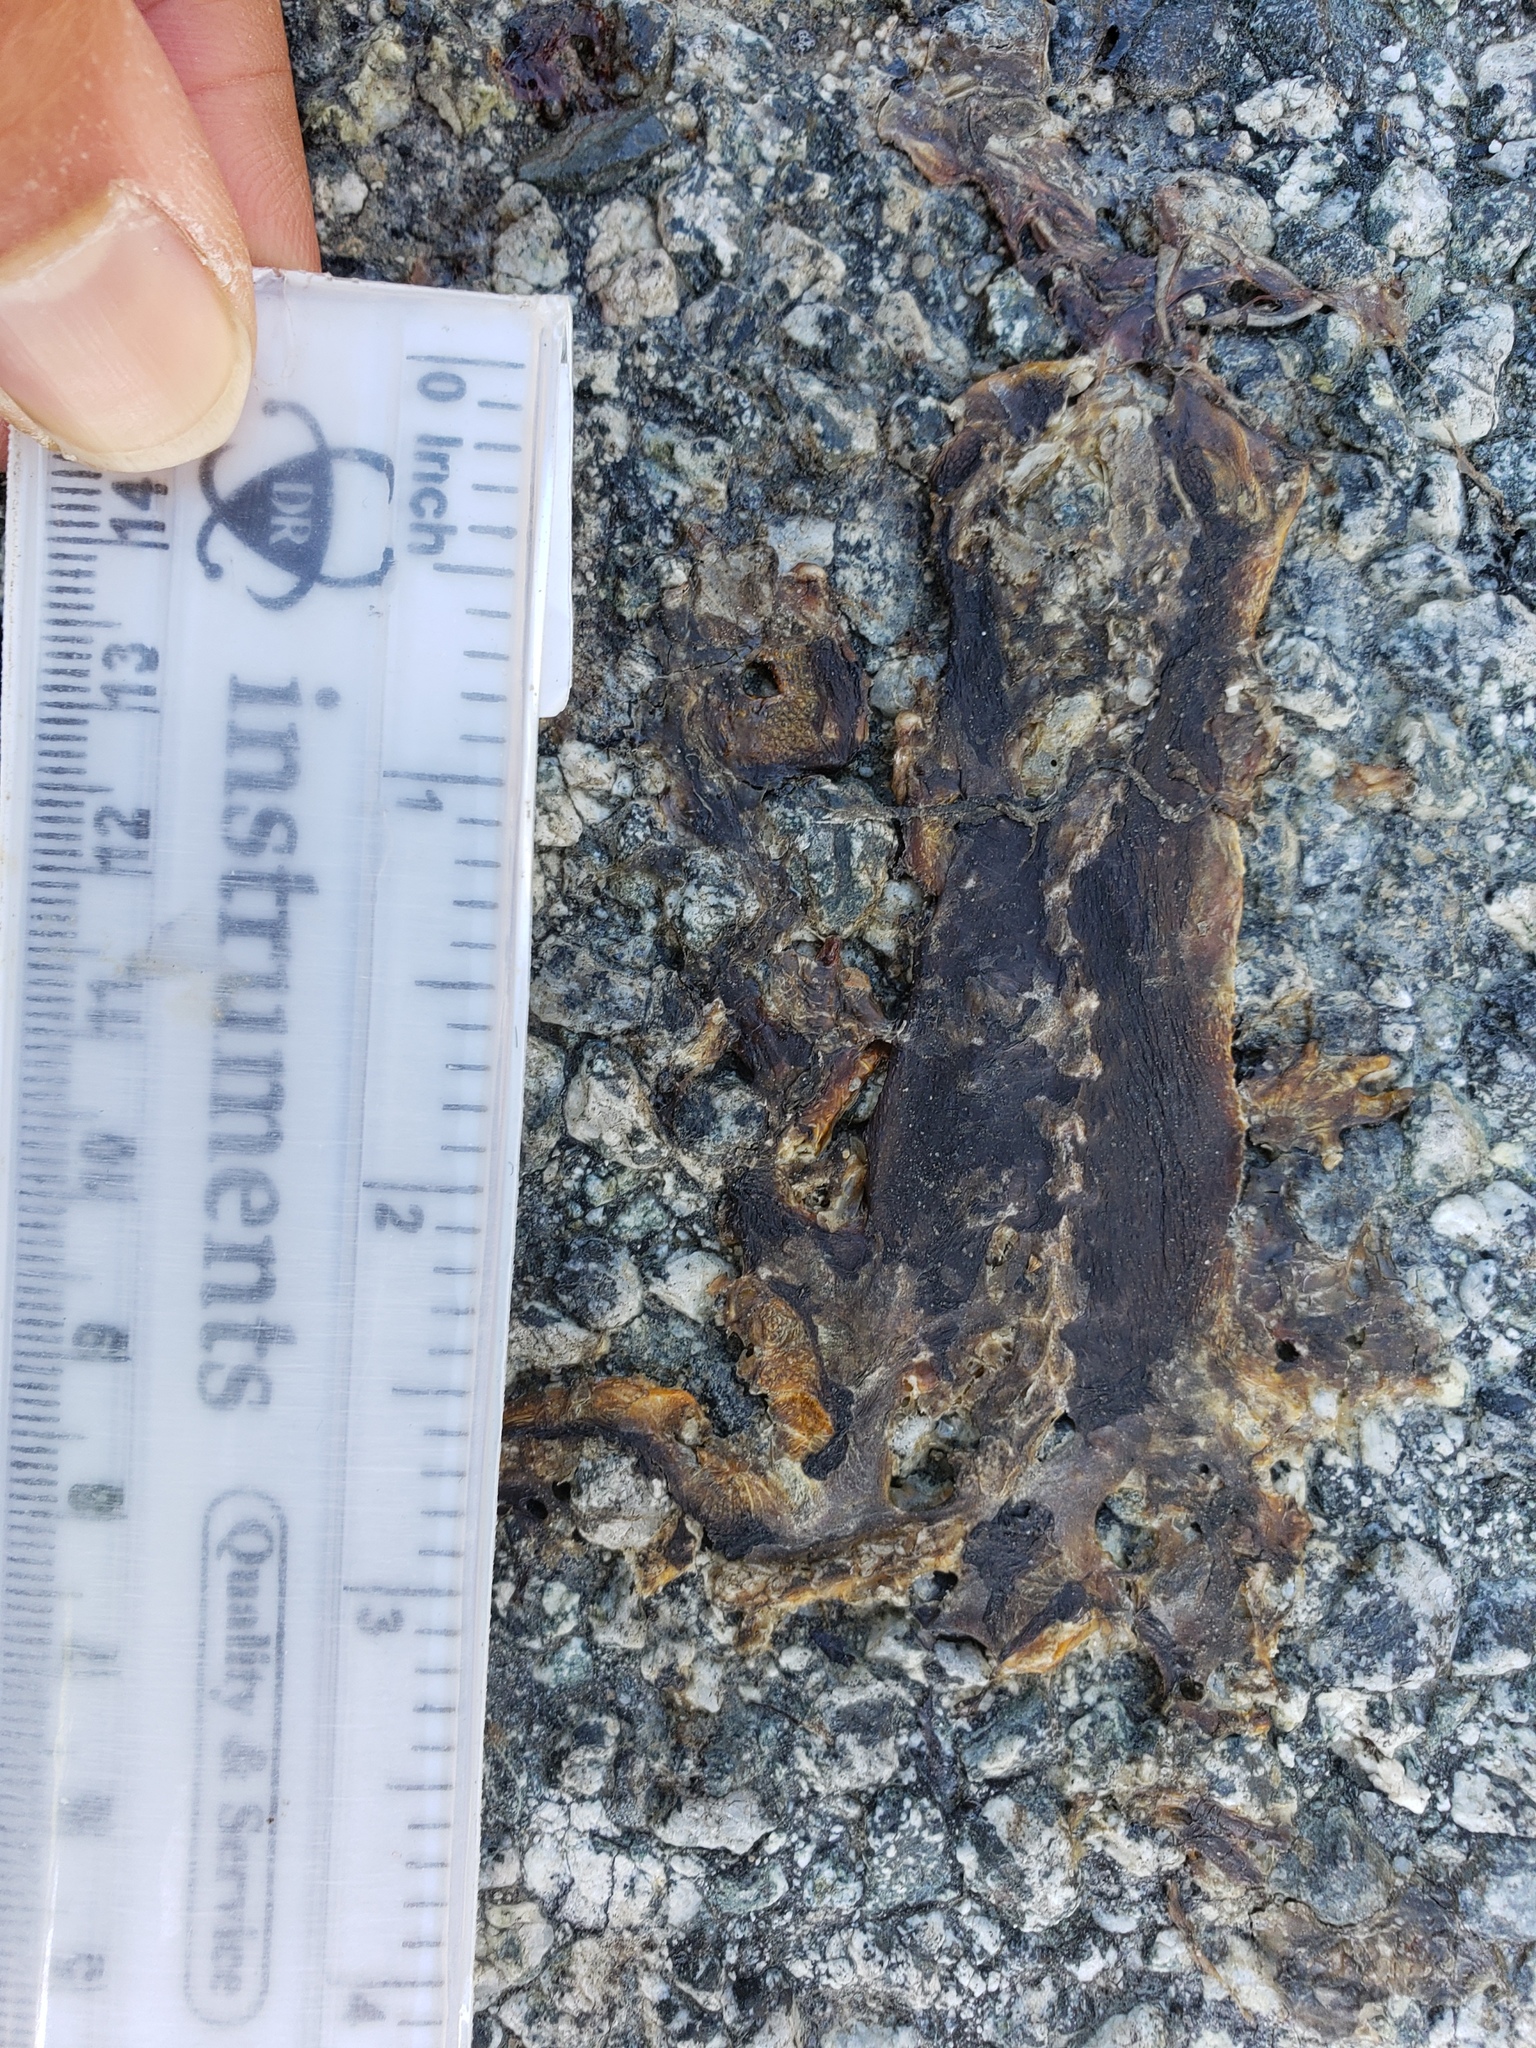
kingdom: Animalia
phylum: Chordata
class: Amphibia
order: Caudata
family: Salamandridae
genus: Taricha
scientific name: Taricha
